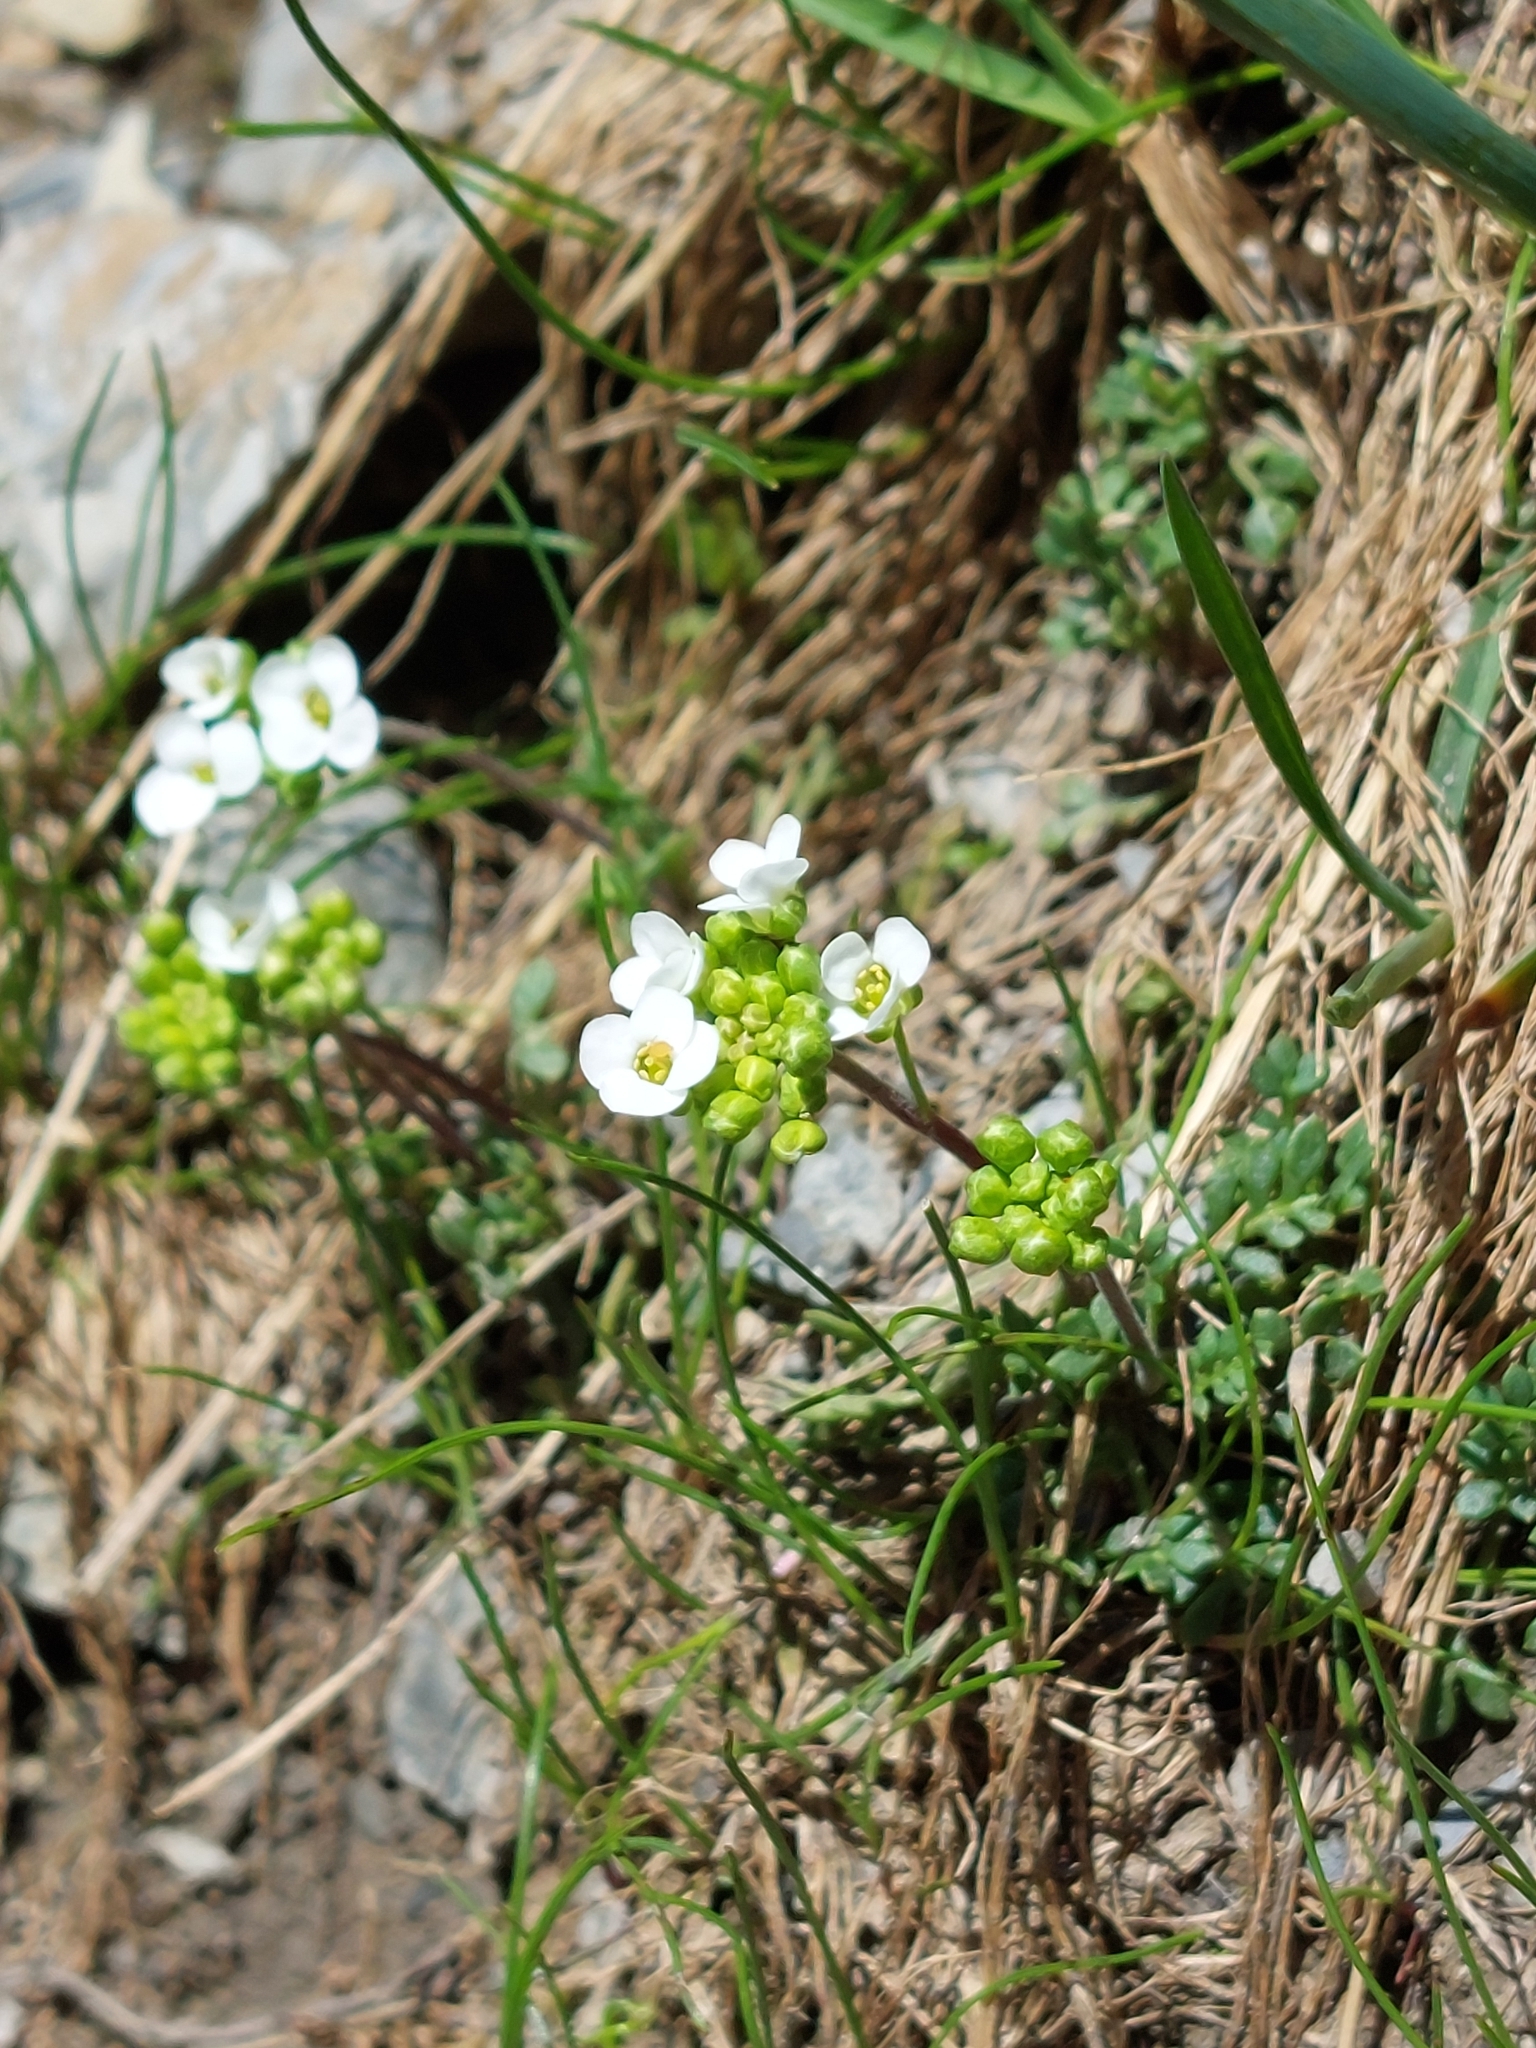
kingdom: Plantae
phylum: Tracheophyta
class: Magnoliopsida
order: Brassicales
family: Brassicaceae
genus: Hornungia
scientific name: Hornungia alpina
